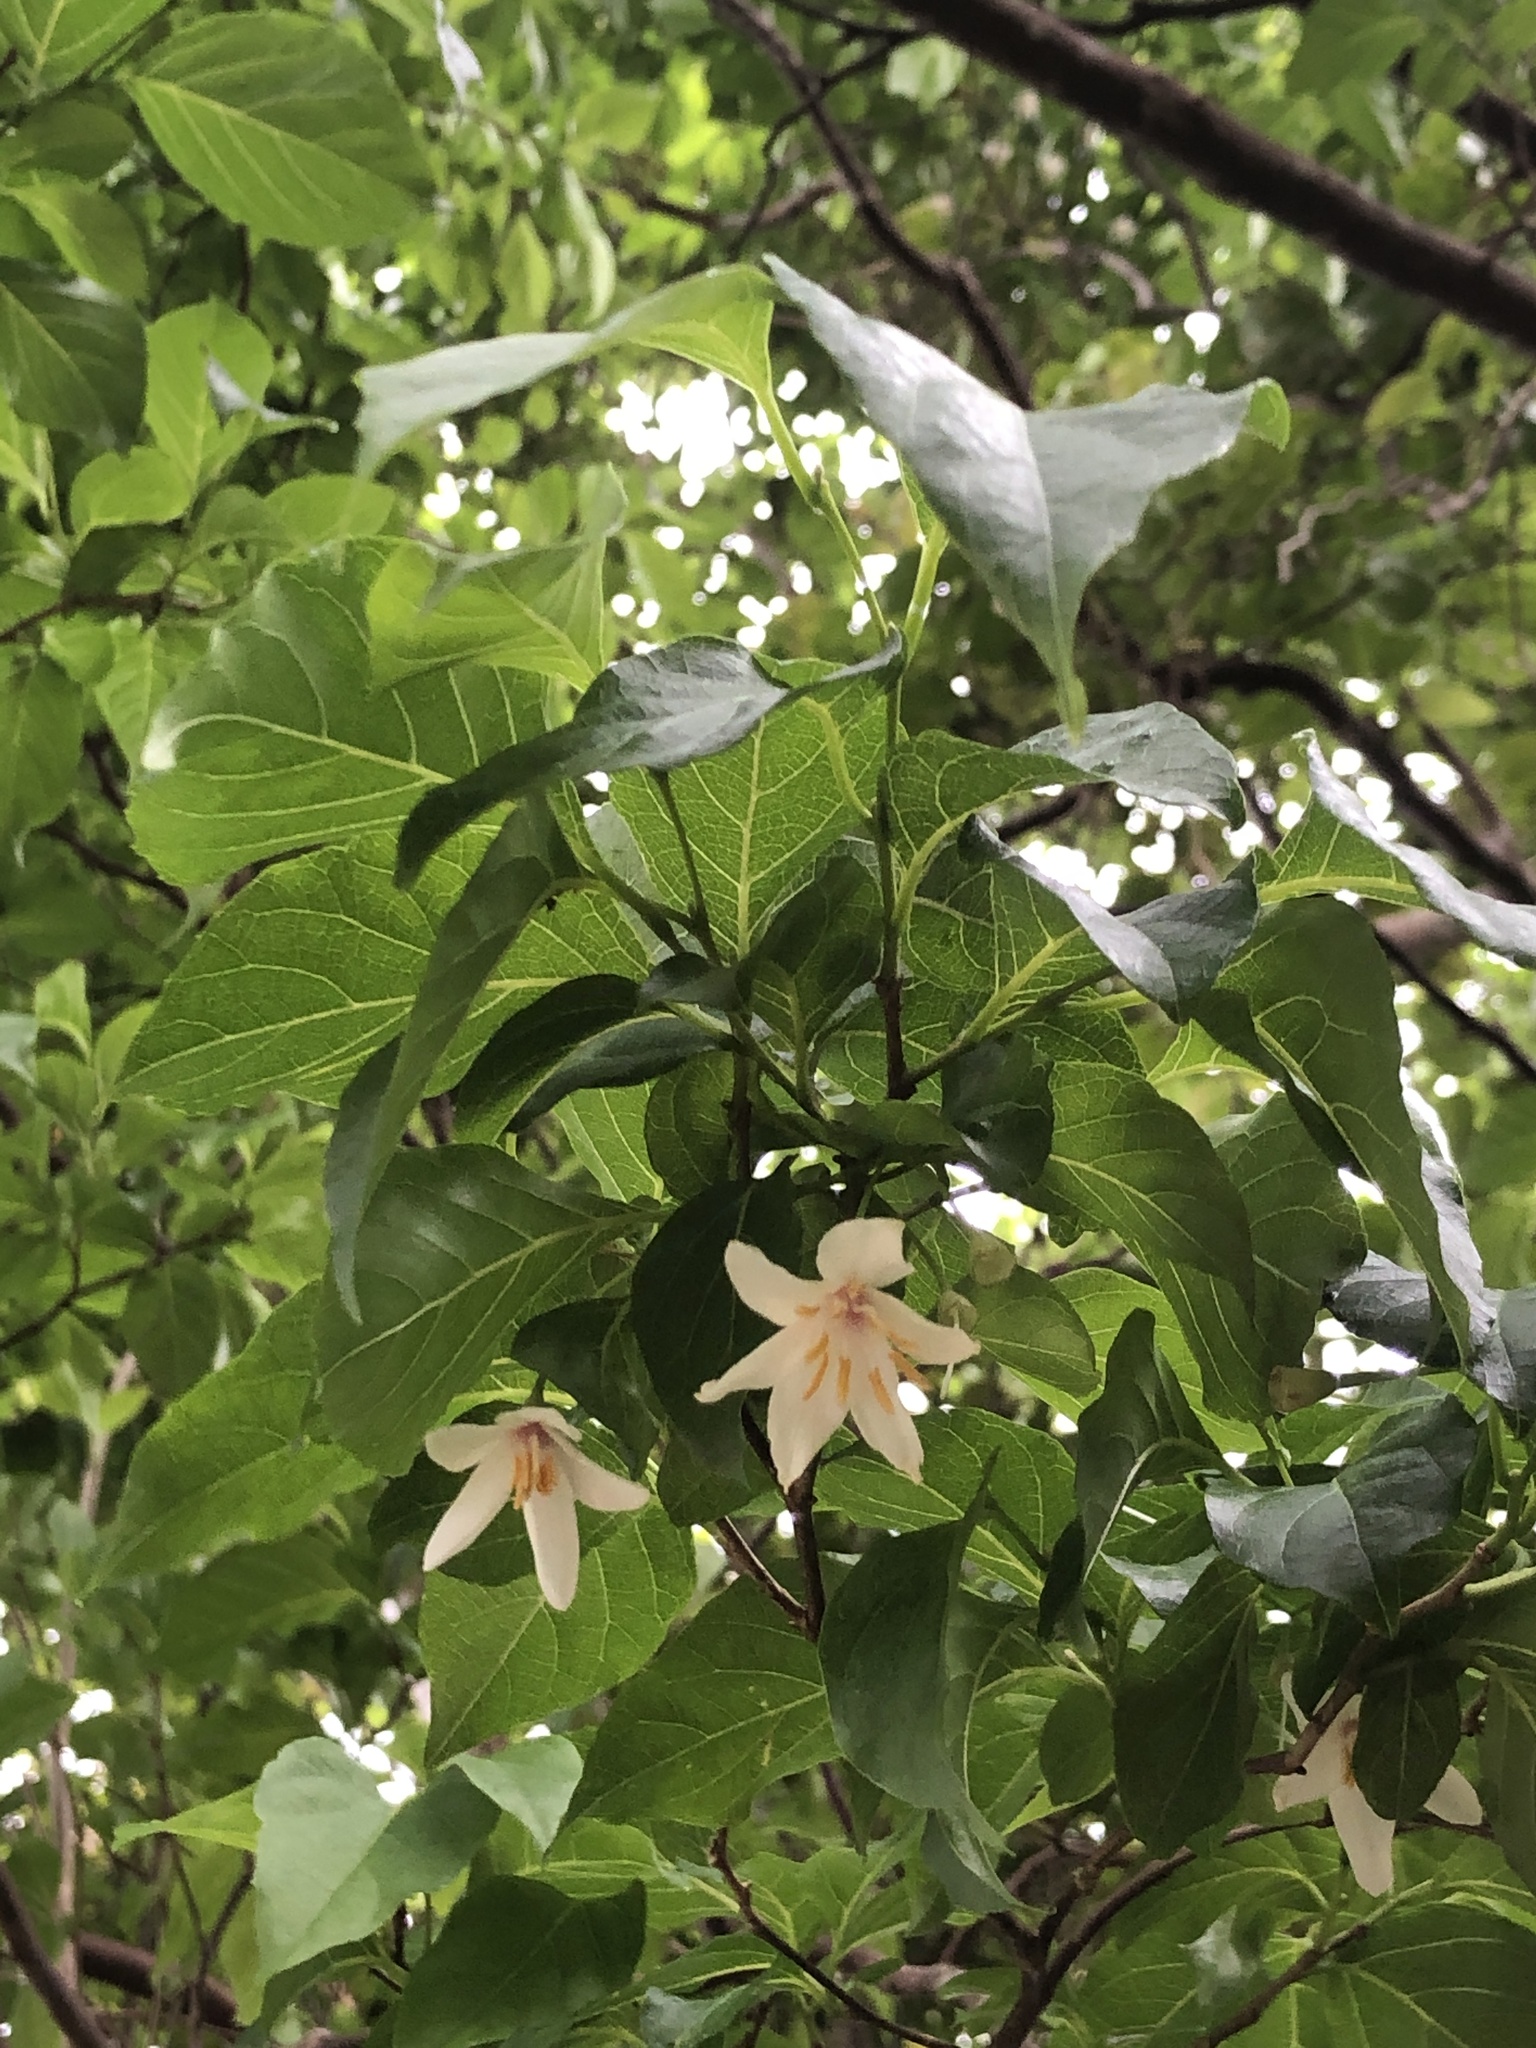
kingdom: Plantae
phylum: Tracheophyta
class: Magnoliopsida
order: Ericales
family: Styracaceae
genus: Styrax
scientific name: Styrax japonicus
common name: Japanese snowbell
